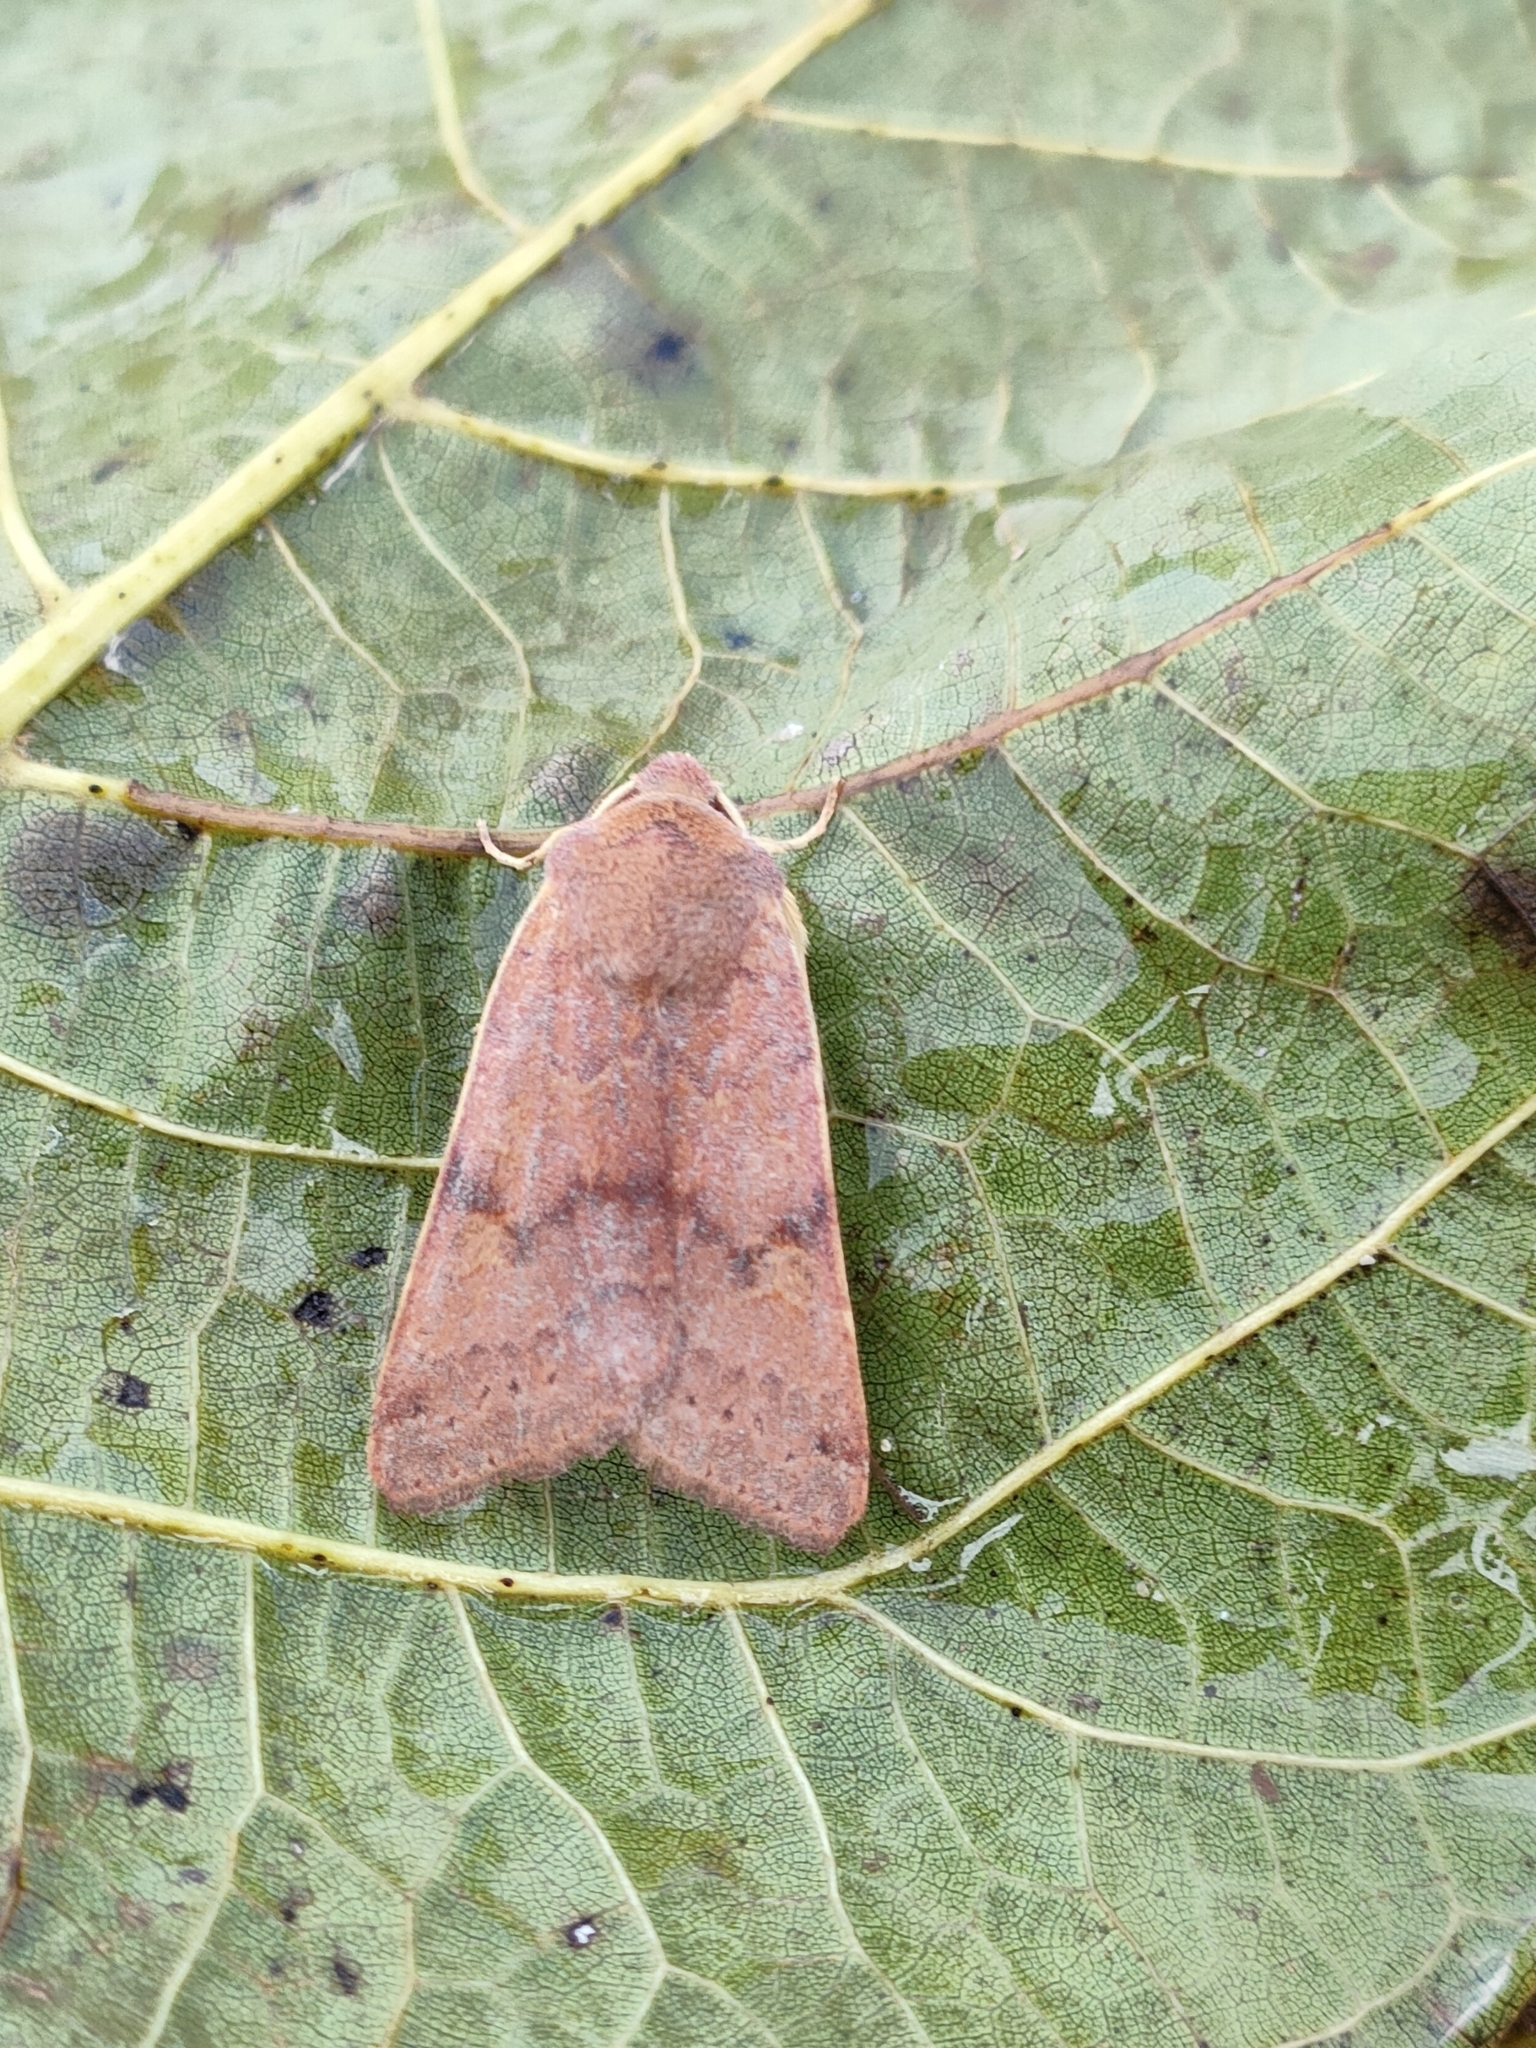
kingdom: Animalia
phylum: Arthropoda
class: Insecta
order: Lepidoptera
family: Noctuidae
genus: Agrochola
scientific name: Agrochola helvola
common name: Flounced chestnut
